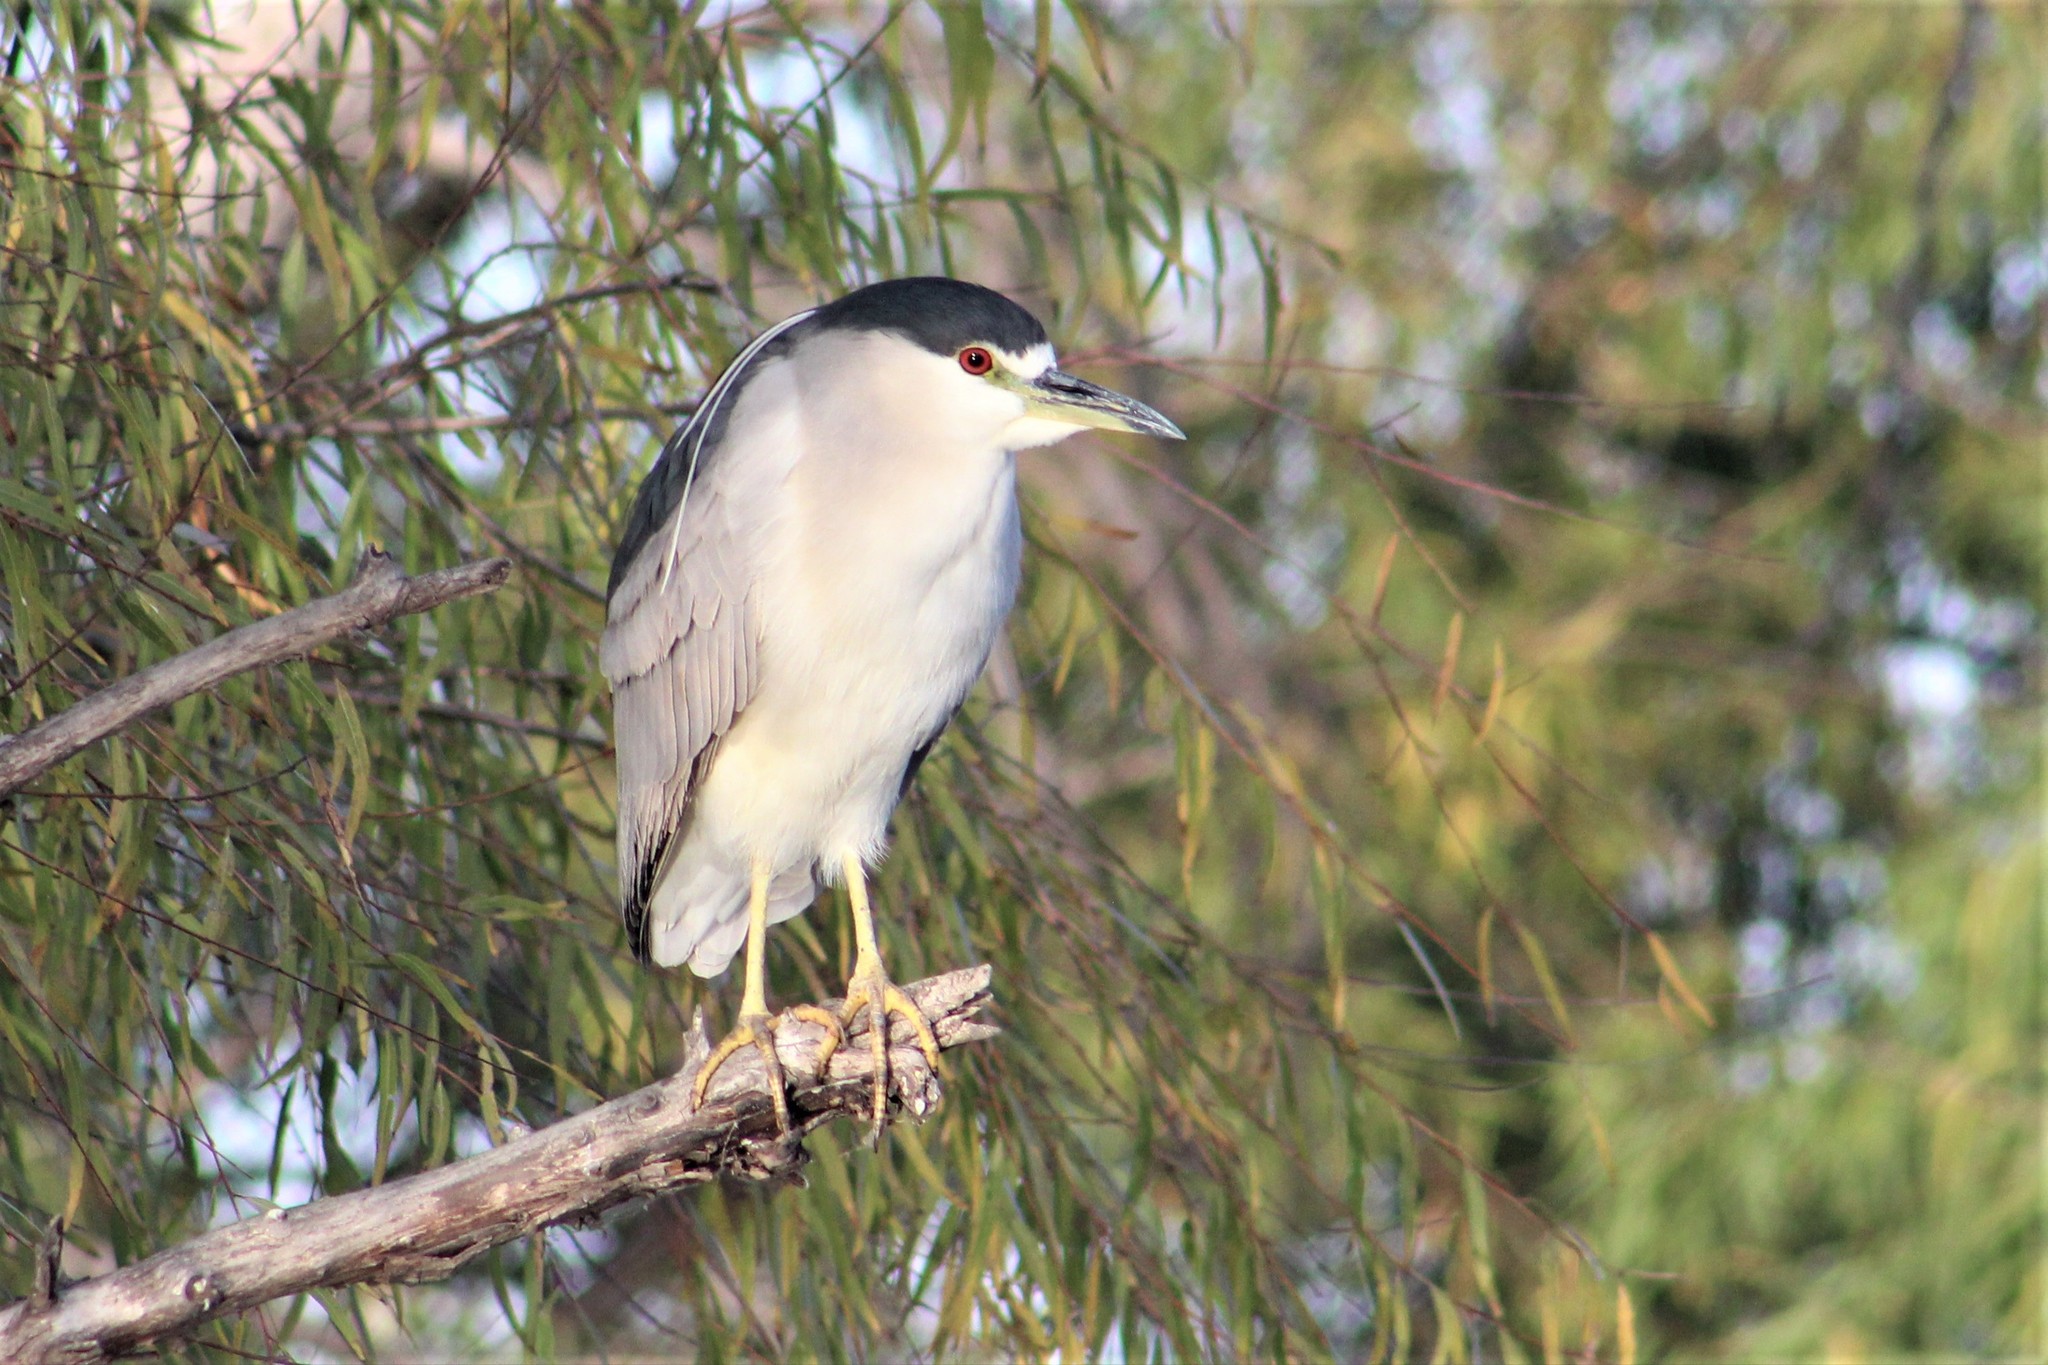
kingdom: Animalia
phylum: Chordata
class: Aves
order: Pelecaniformes
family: Ardeidae
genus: Nycticorax
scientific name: Nycticorax nycticorax
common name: Black-crowned night heron
